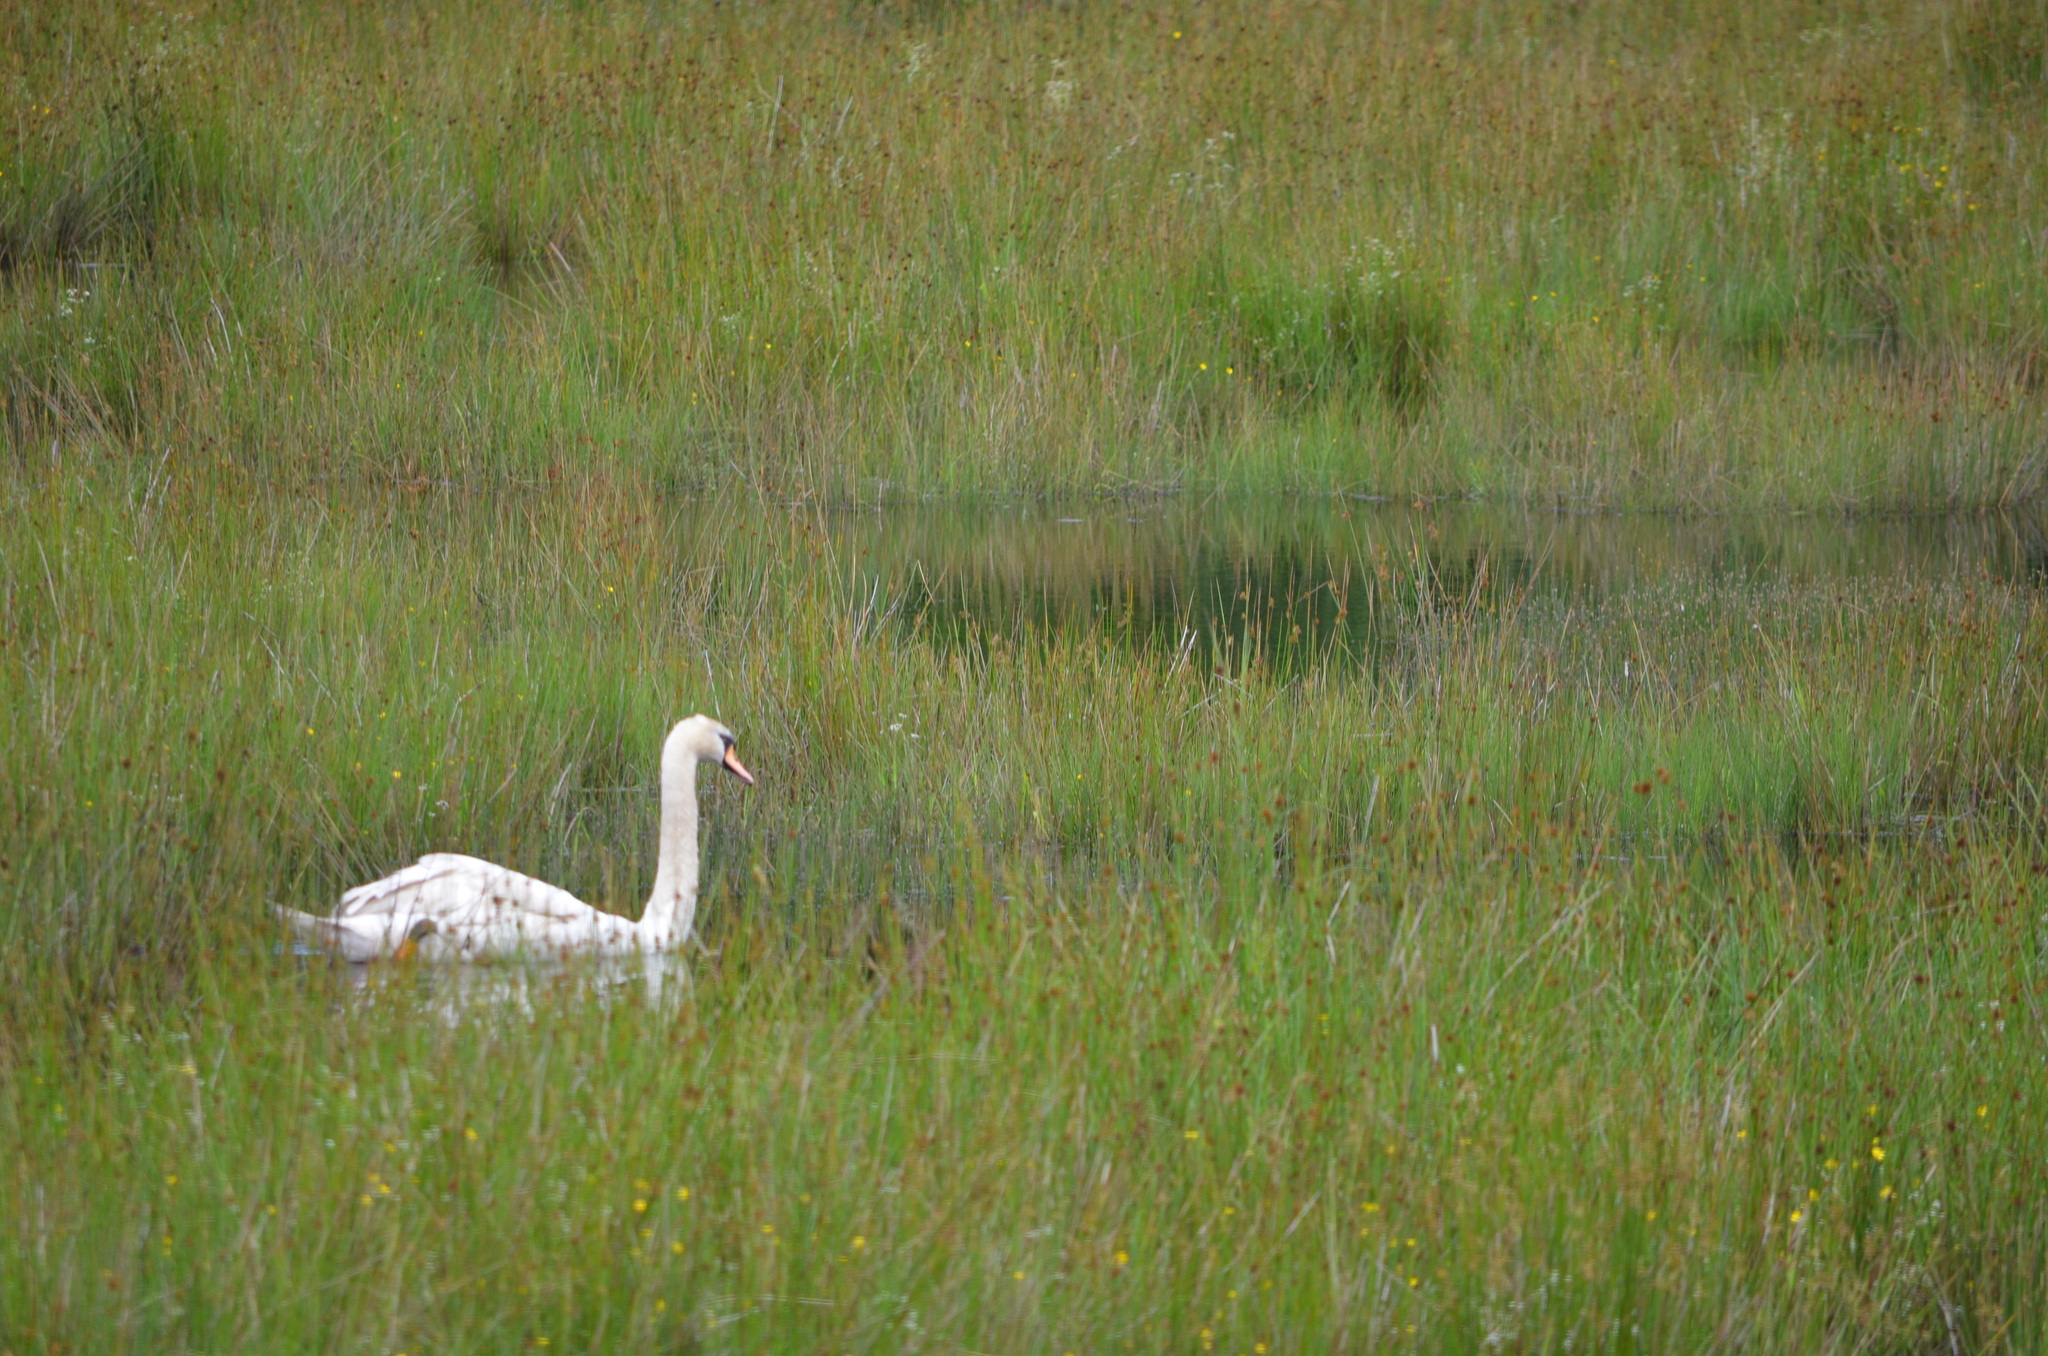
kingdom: Animalia
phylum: Chordata
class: Aves
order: Anseriformes
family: Anatidae
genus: Cygnus
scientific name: Cygnus olor
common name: Mute swan
